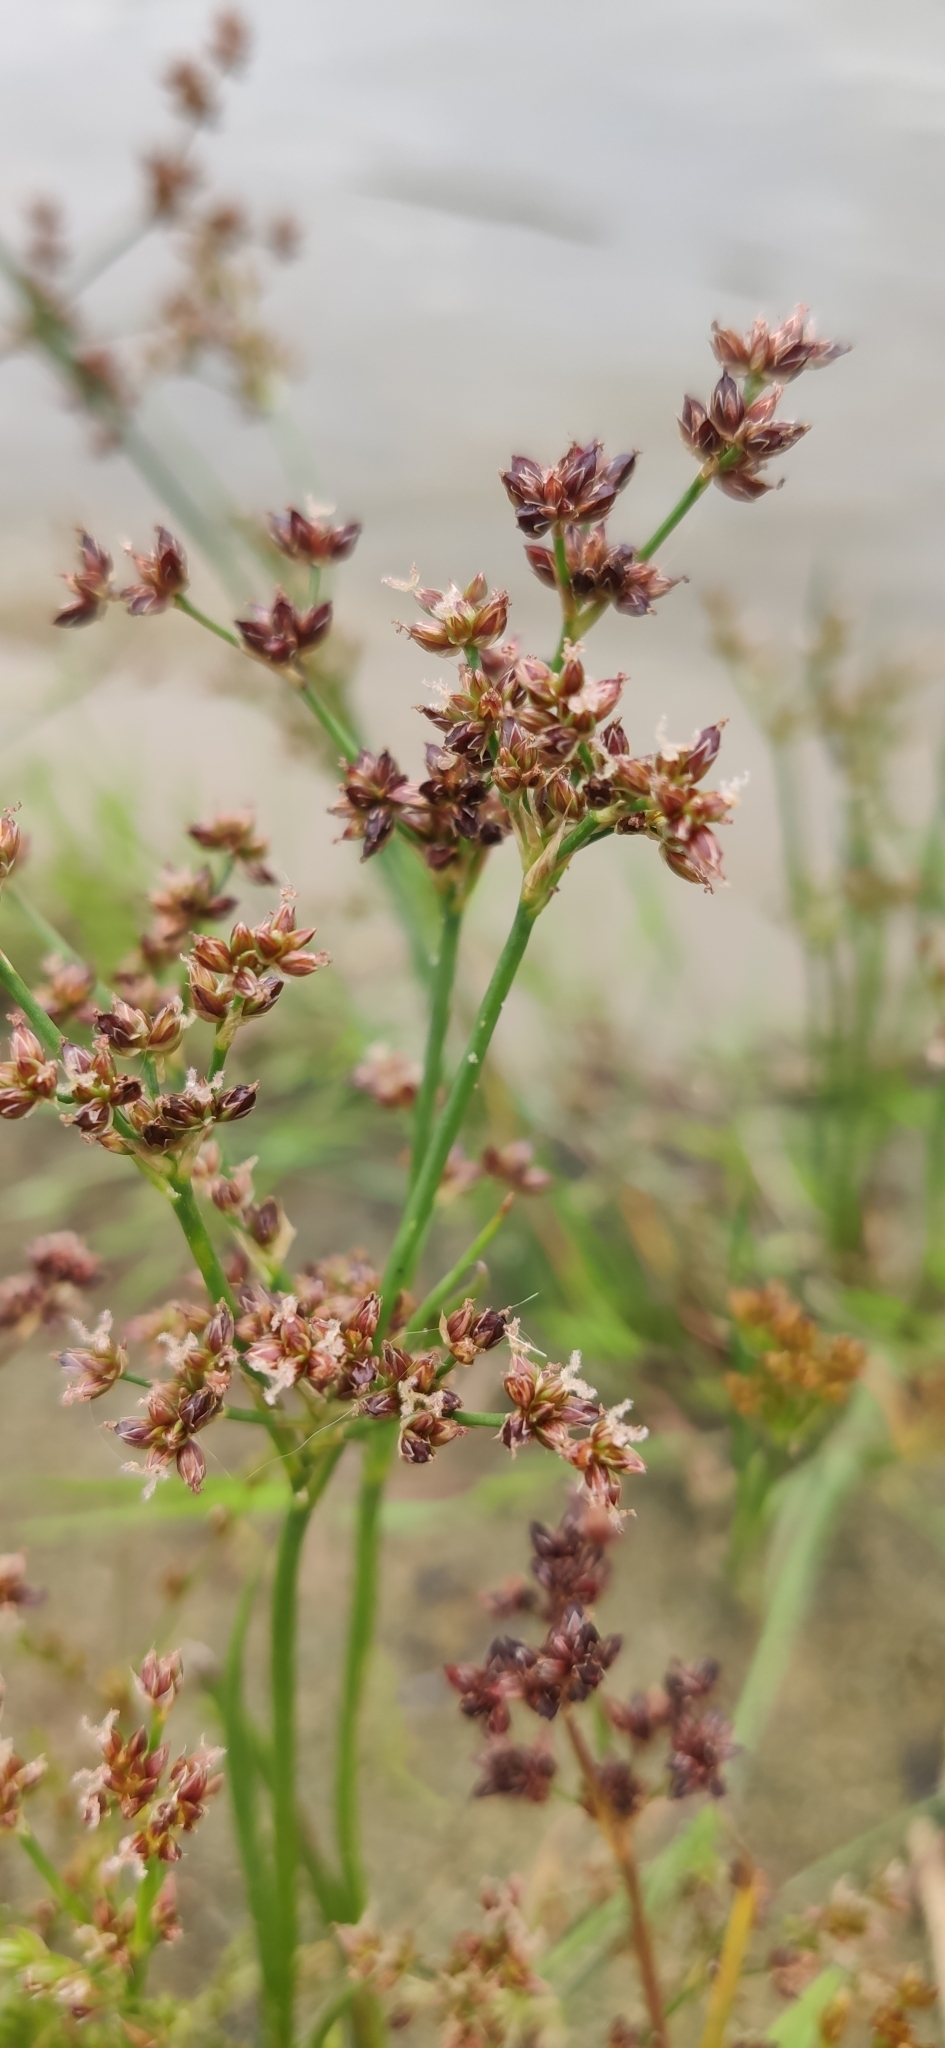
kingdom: Plantae
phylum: Tracheophyta
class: Liliopsida
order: Poales
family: Juncaceae
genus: Juncus
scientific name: Juncus articulatus
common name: Jointed rush
